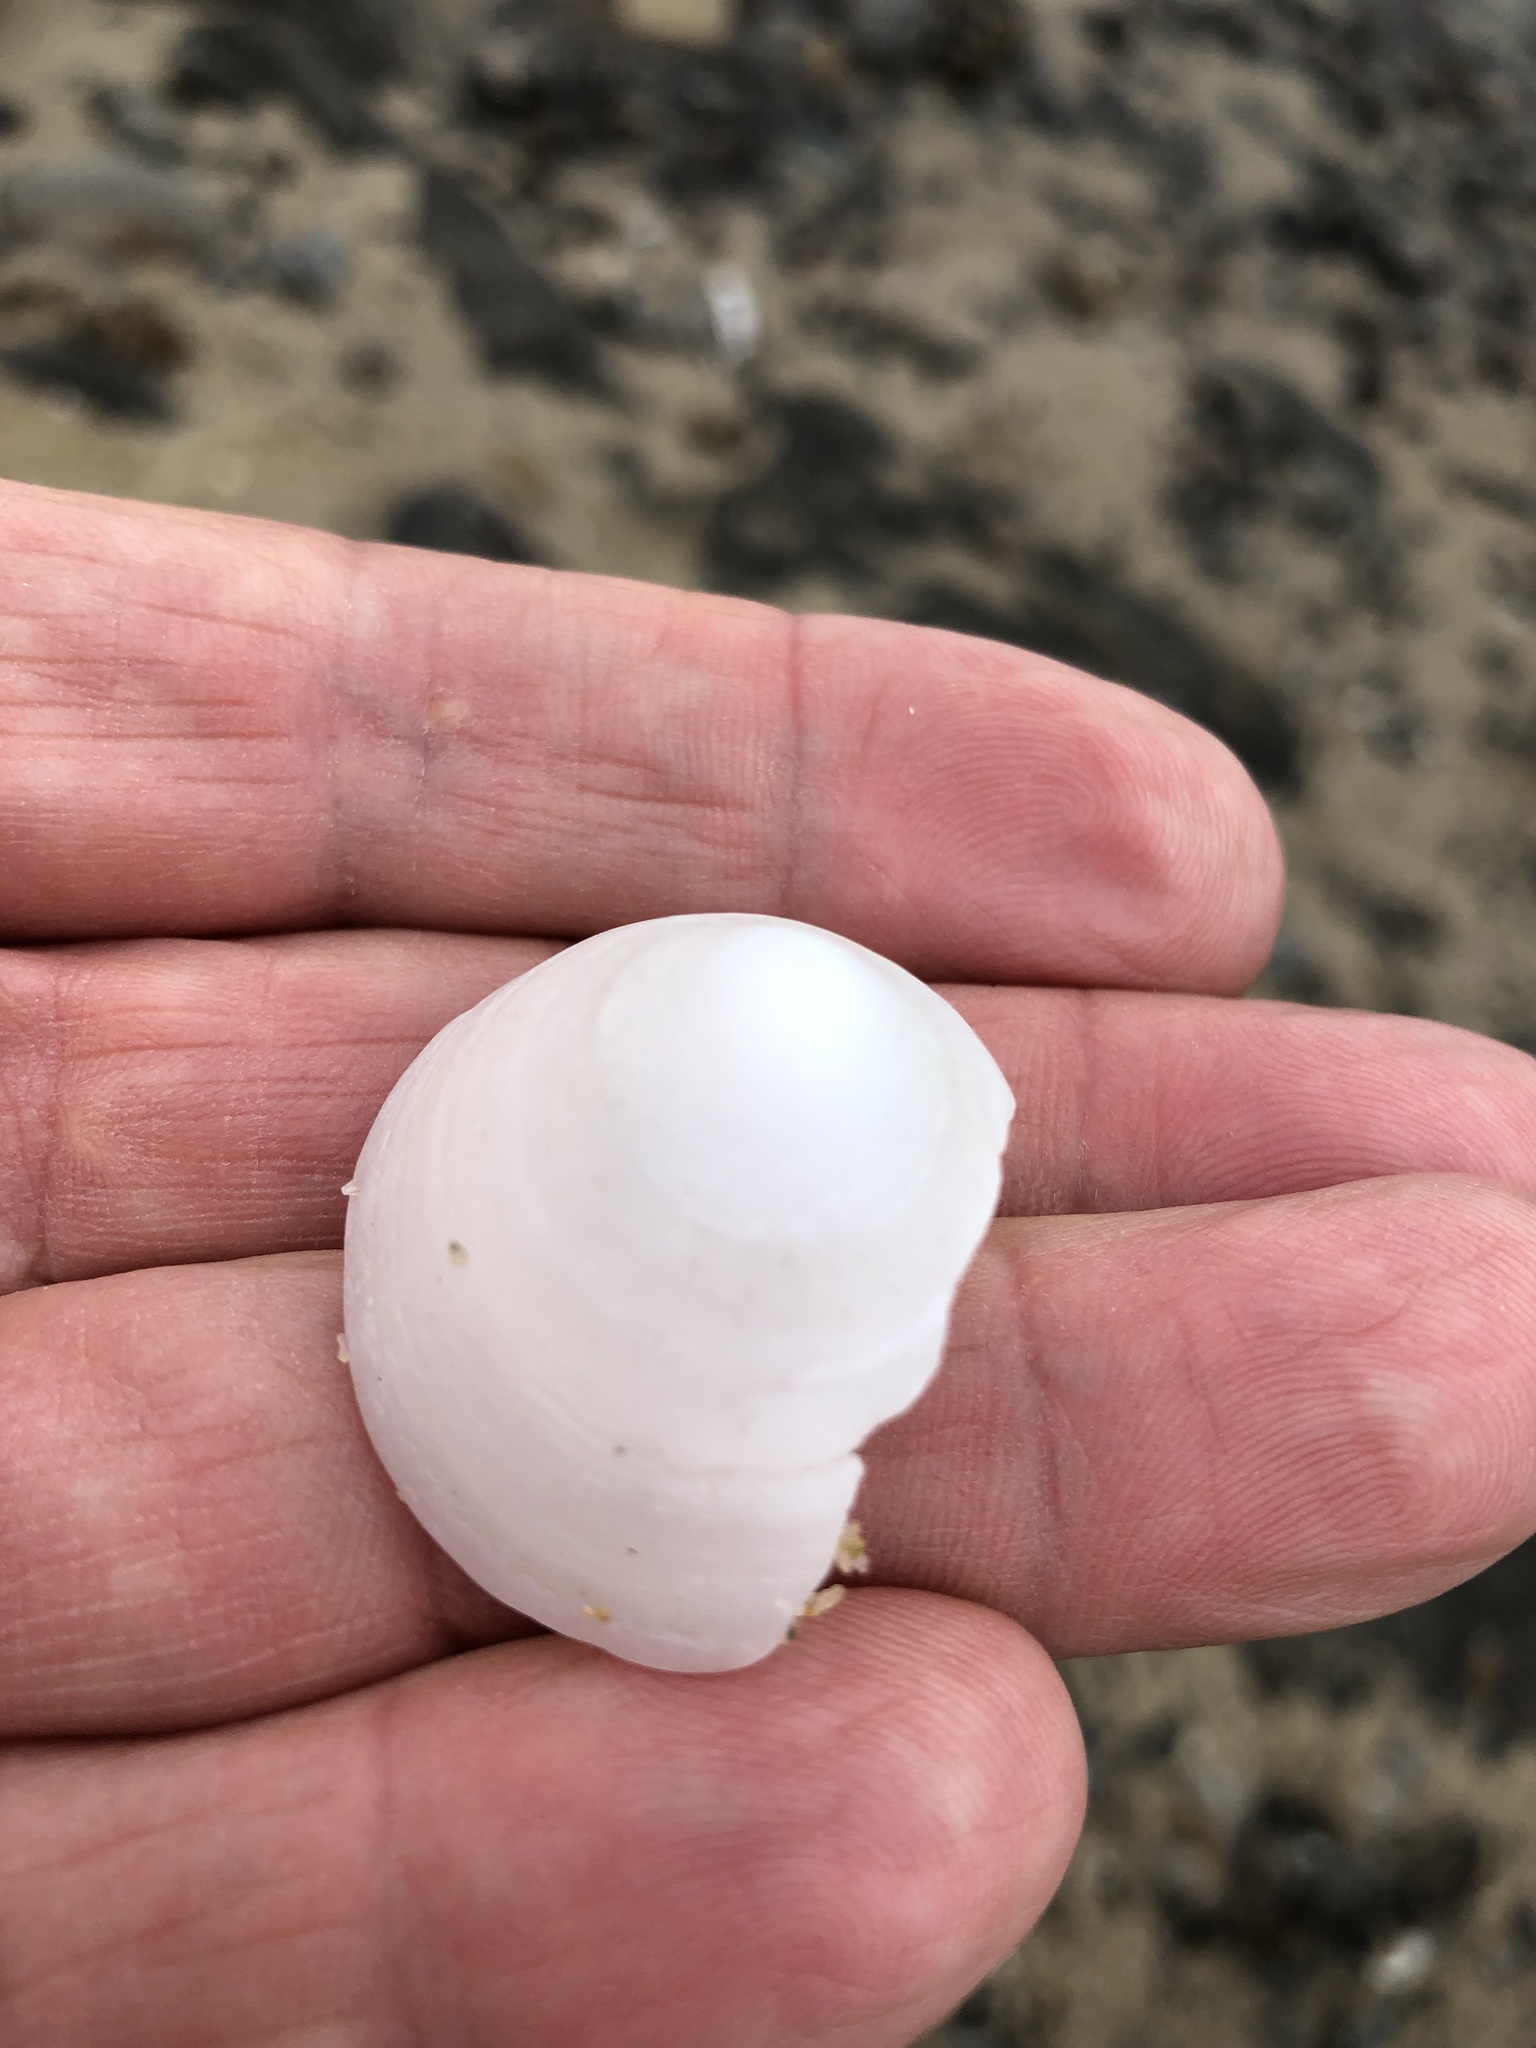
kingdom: Animalia
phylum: Mollusca
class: Gastropoda
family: Acmaeidae
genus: Acmaea
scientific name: Acmaea mitra
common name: Pacific white cap limpet
